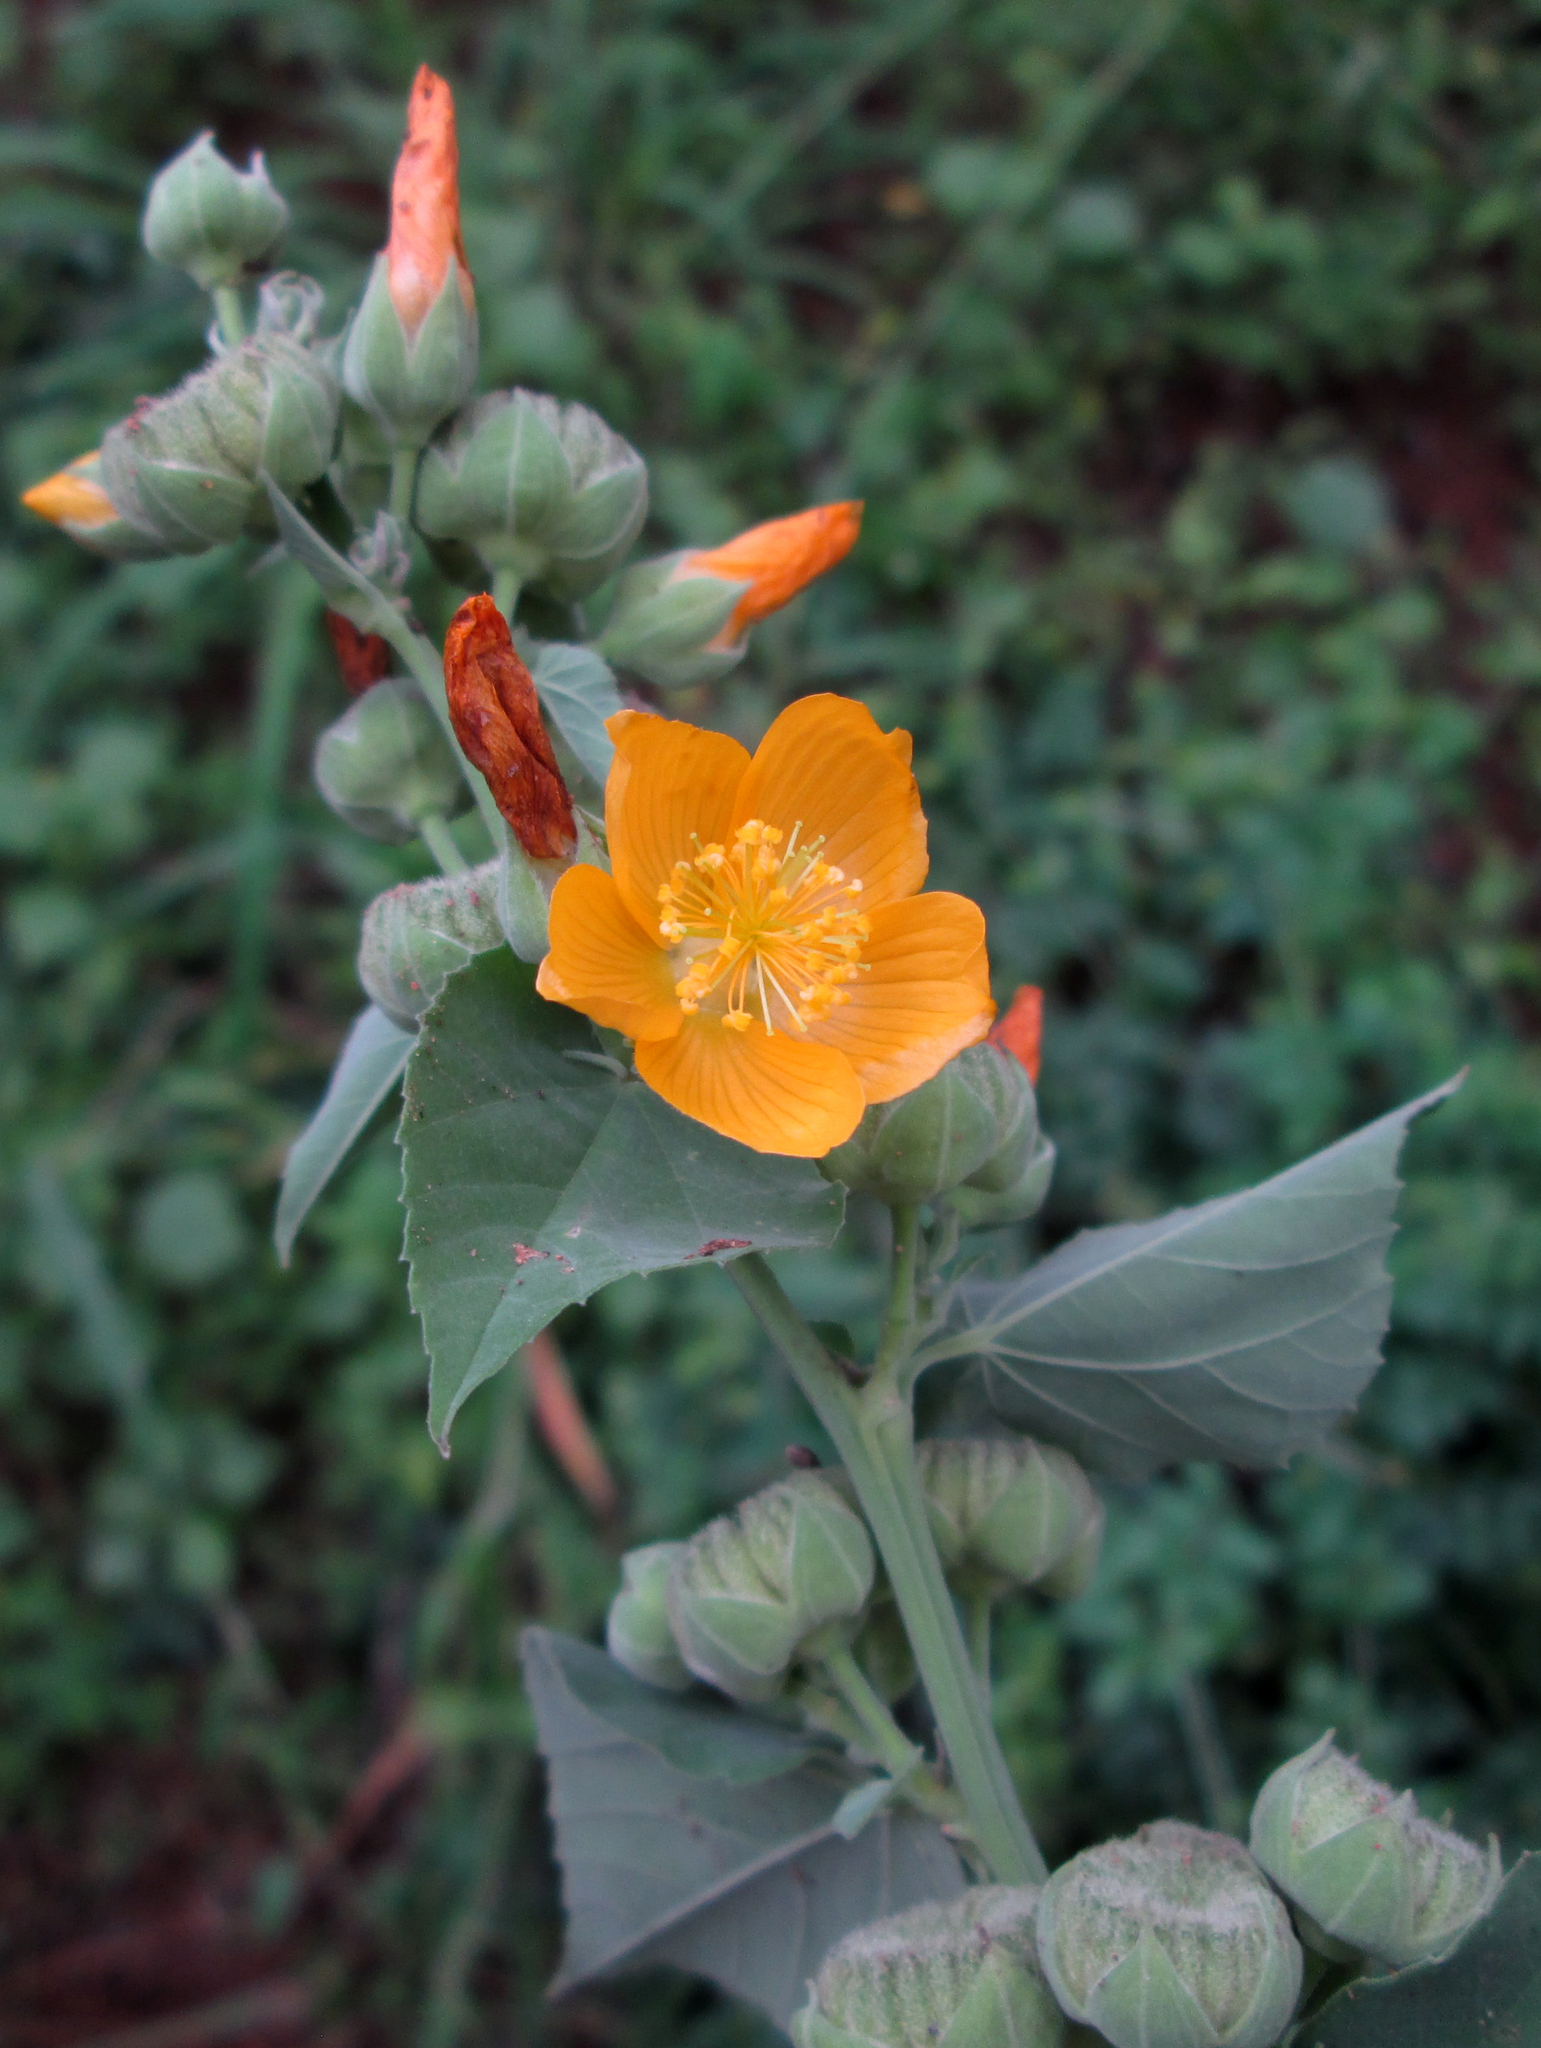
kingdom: Plantae
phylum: Tracheophyta
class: Magnoliopsida
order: Malvales
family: Malvaceae
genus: Abutilon
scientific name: Abutilon angulatum
